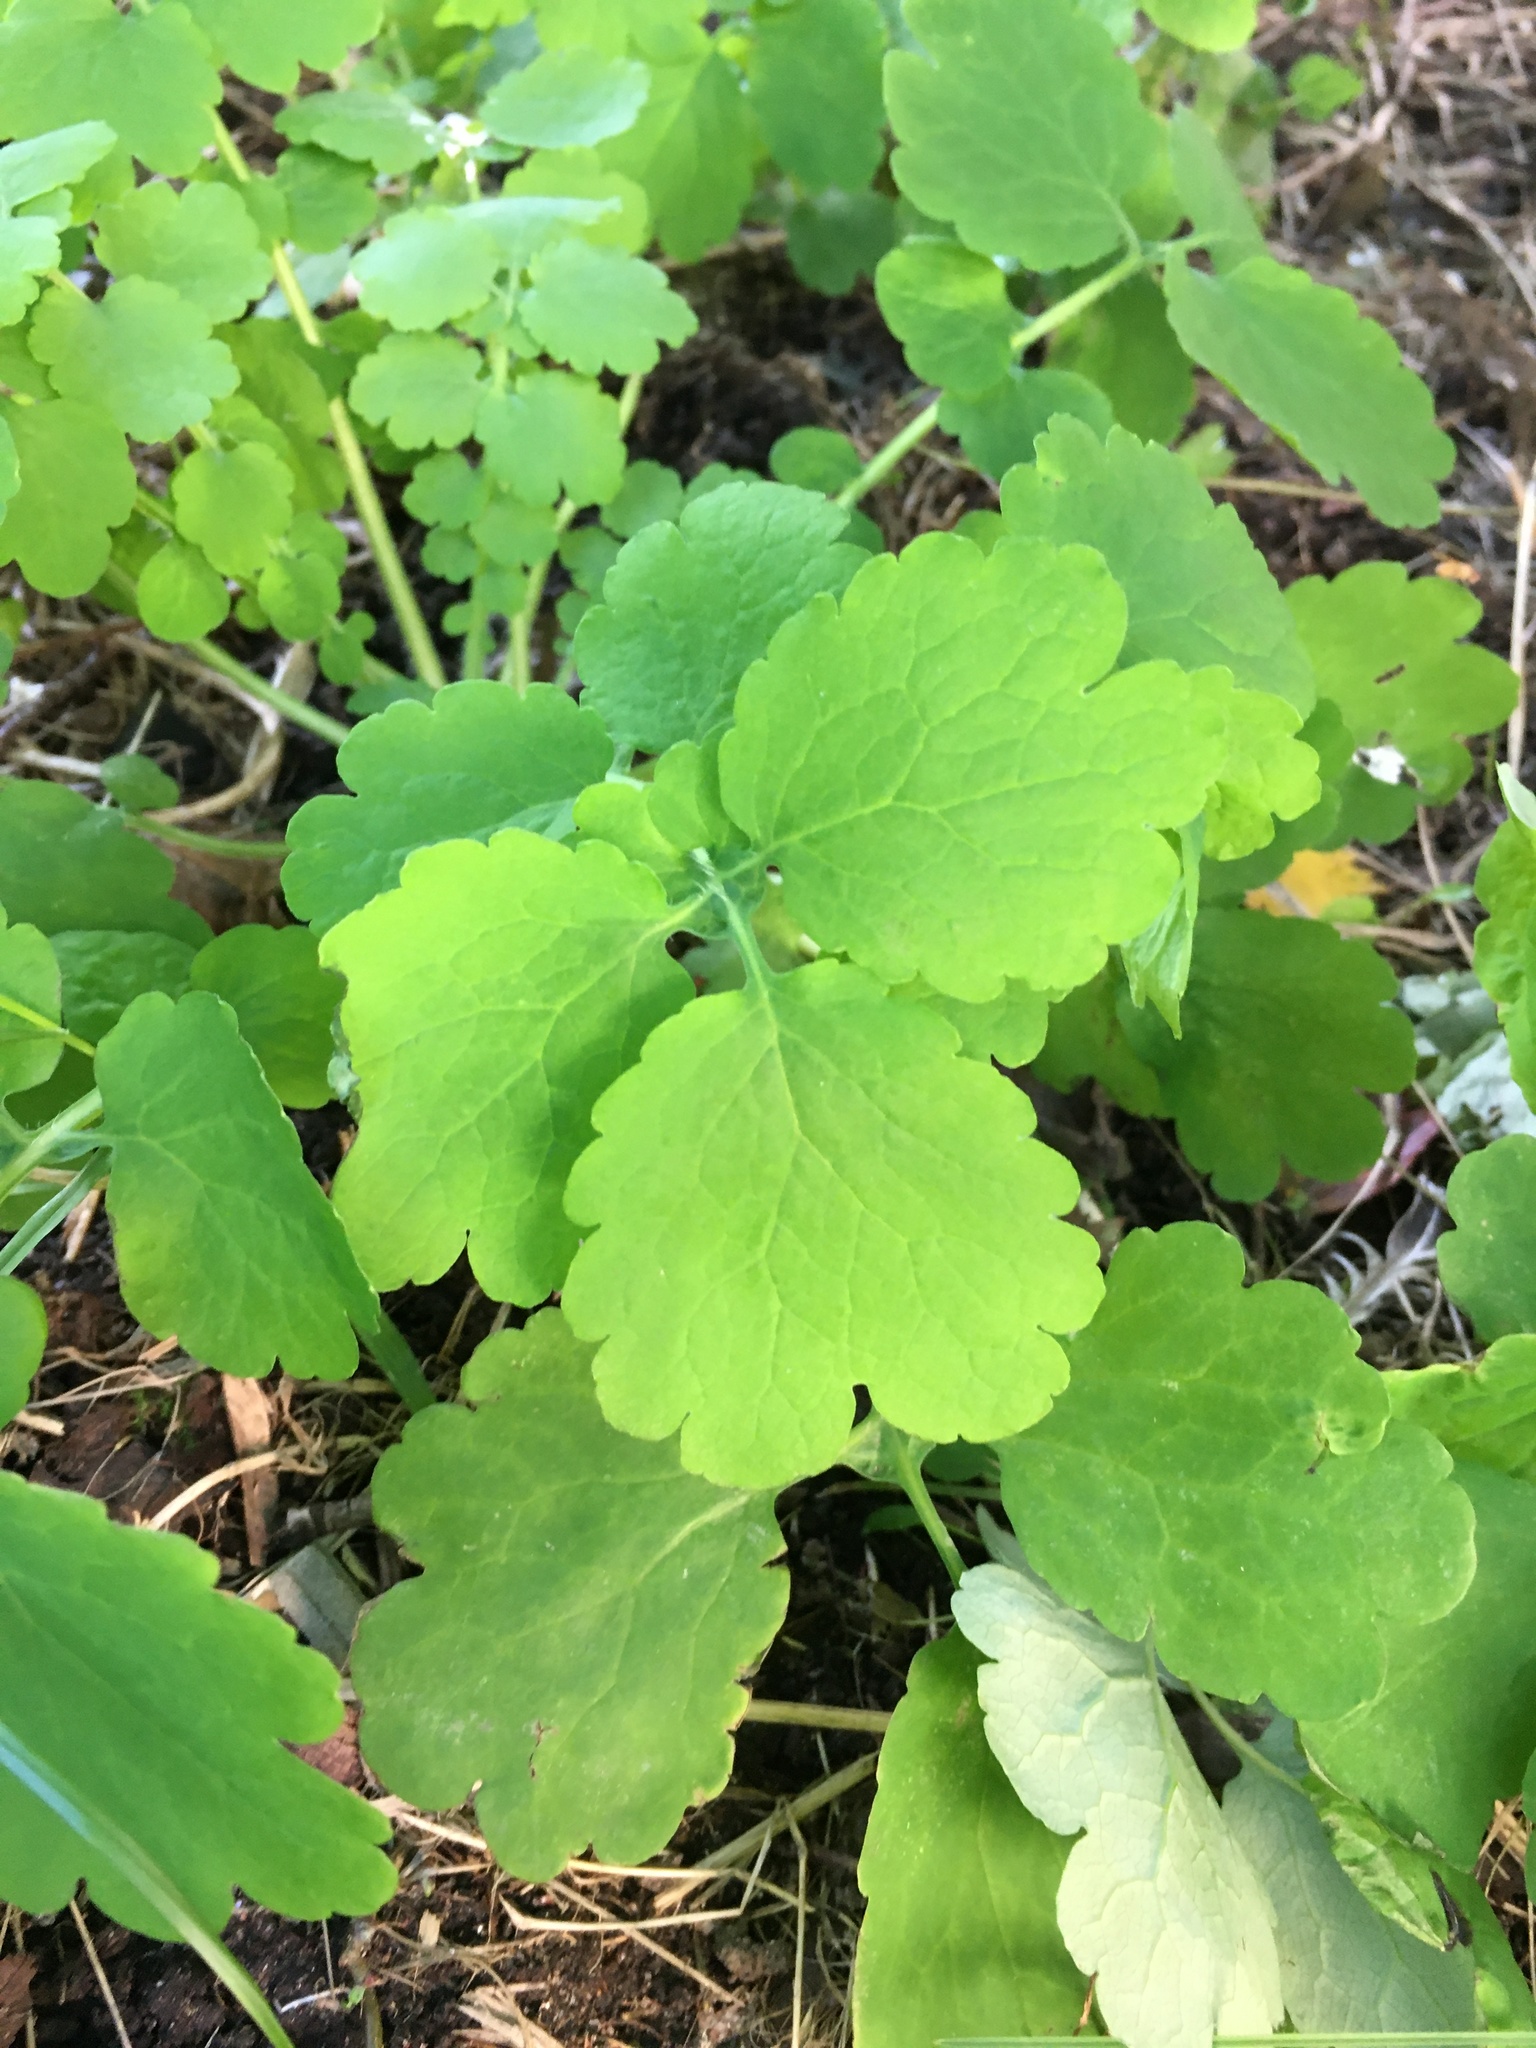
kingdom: Plantae
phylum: Tracheophyta
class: Magnoliopsida
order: Ranunculales
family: Papaveraceae
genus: Chelidonium
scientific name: Chelidonium majus
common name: Greater celandine
